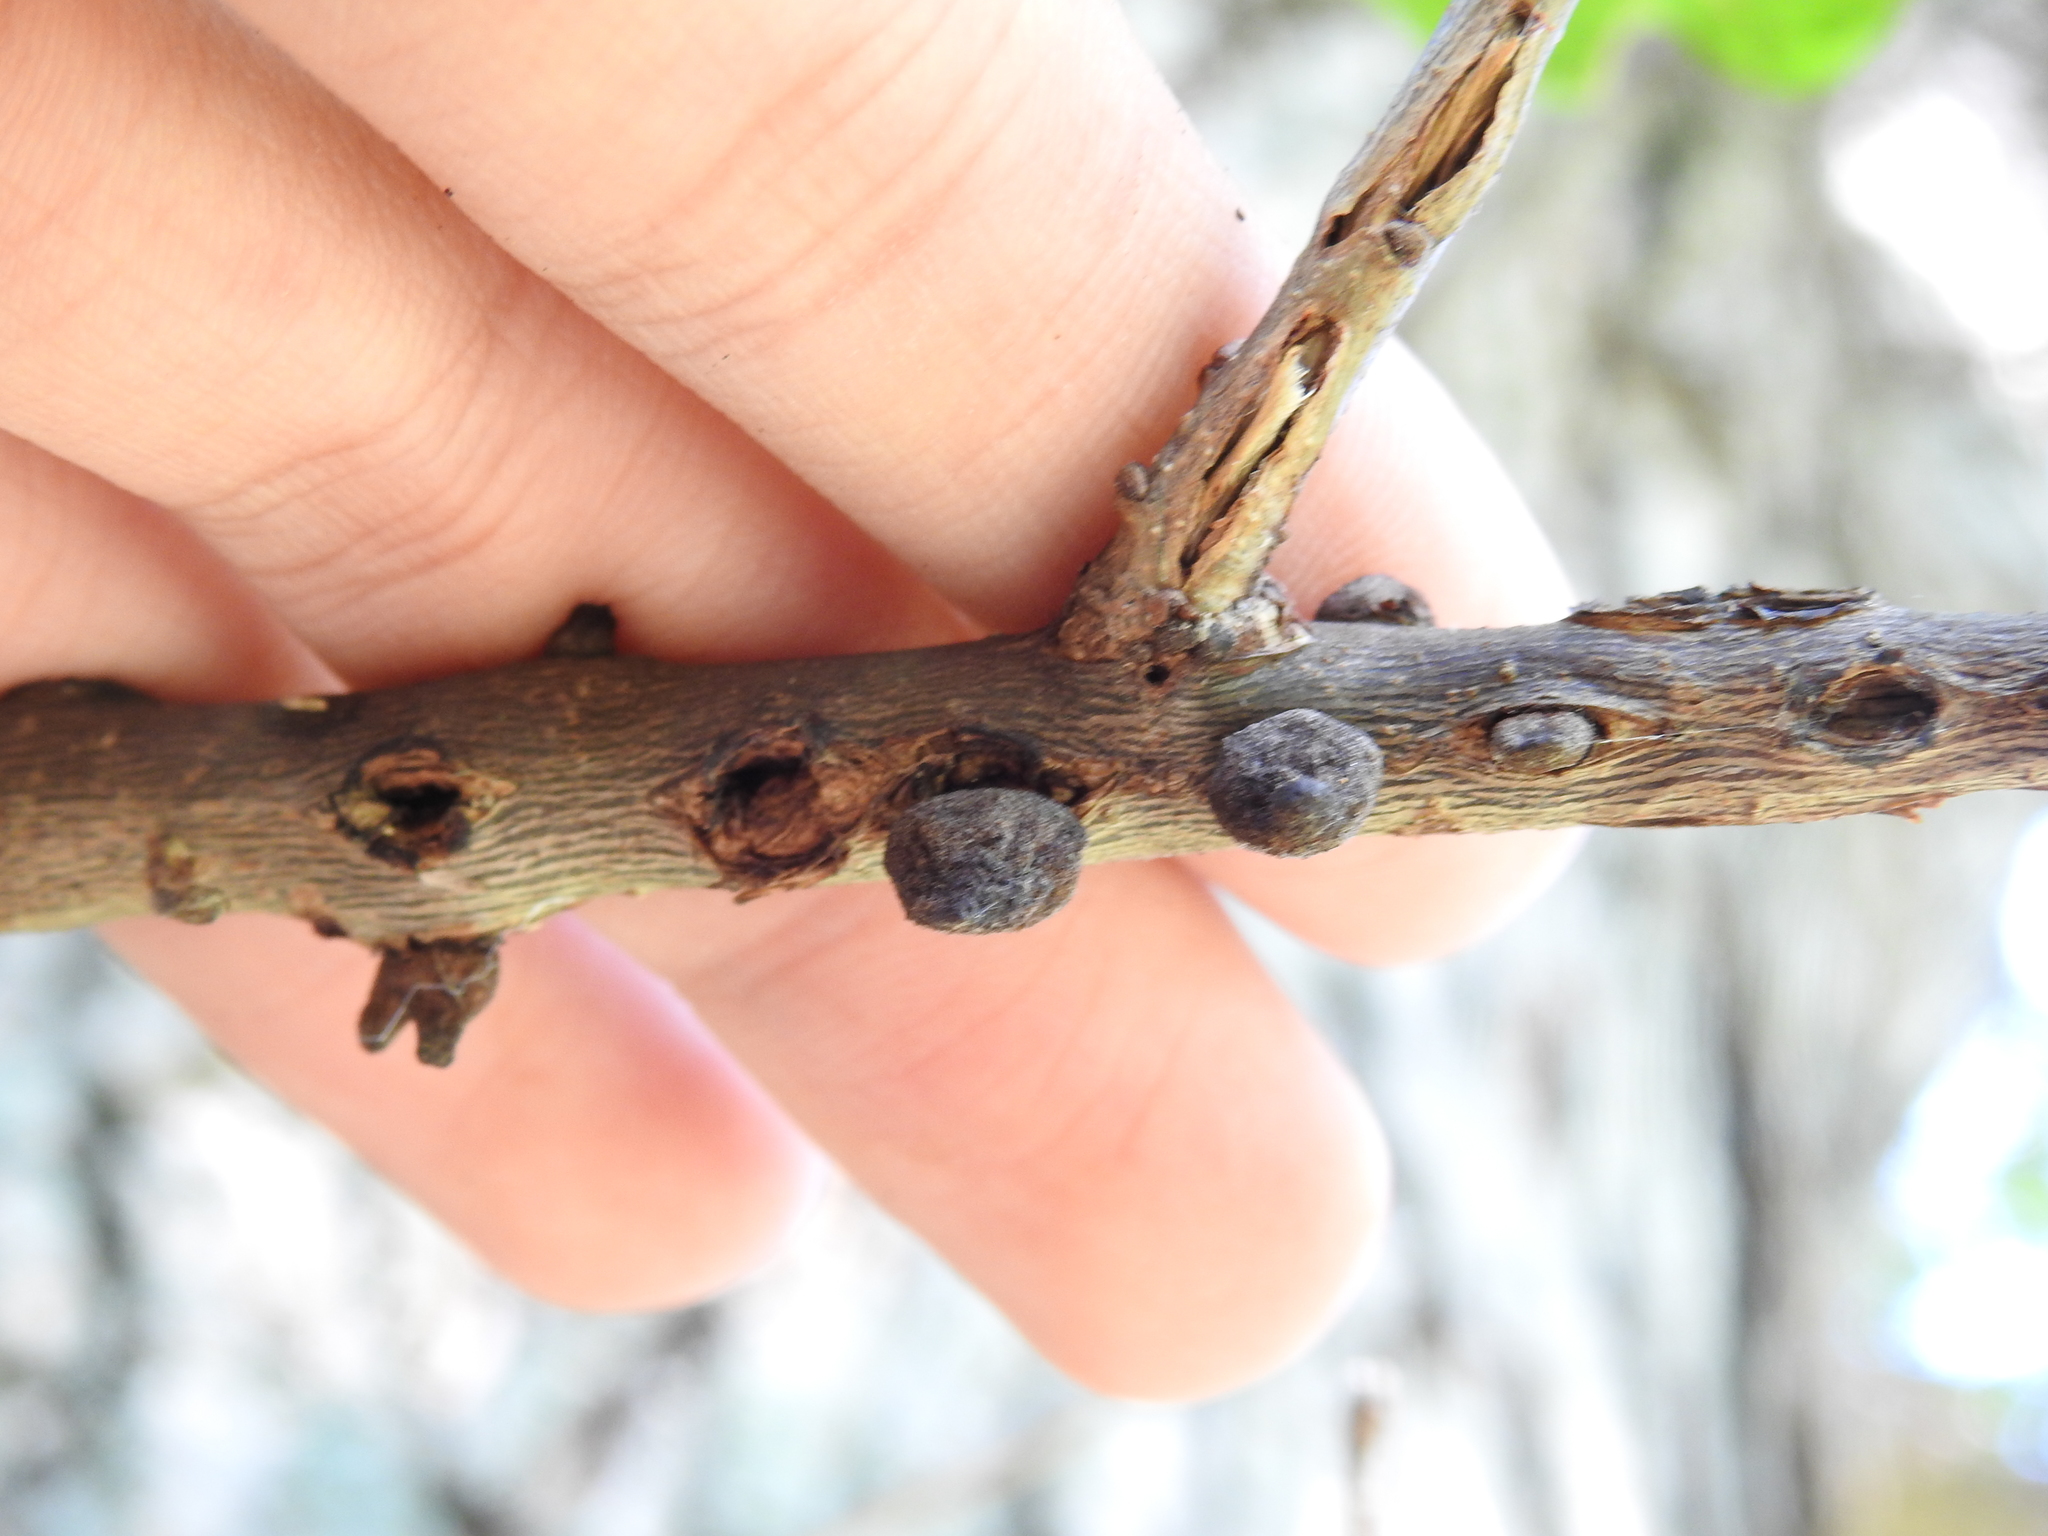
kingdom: Animalia
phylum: Arthropoda
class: Insecta
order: Hymenoptera
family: Cynipidae
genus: Disholcaspis
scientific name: Disholcaspis
